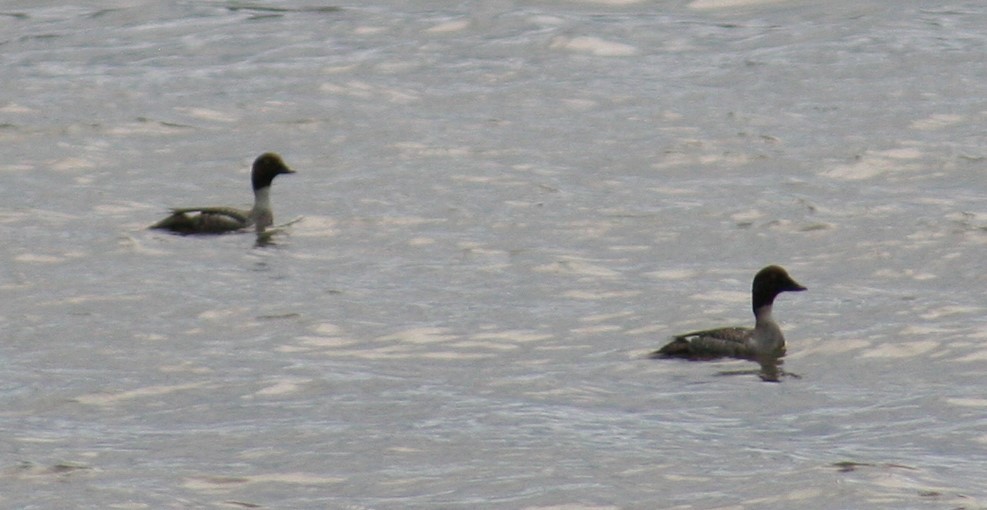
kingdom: Animalia
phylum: Chordata
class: Aves
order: Anseriformes
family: Anatidae
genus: Bucephala
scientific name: Bucephala clangula
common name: Common goldeneye
